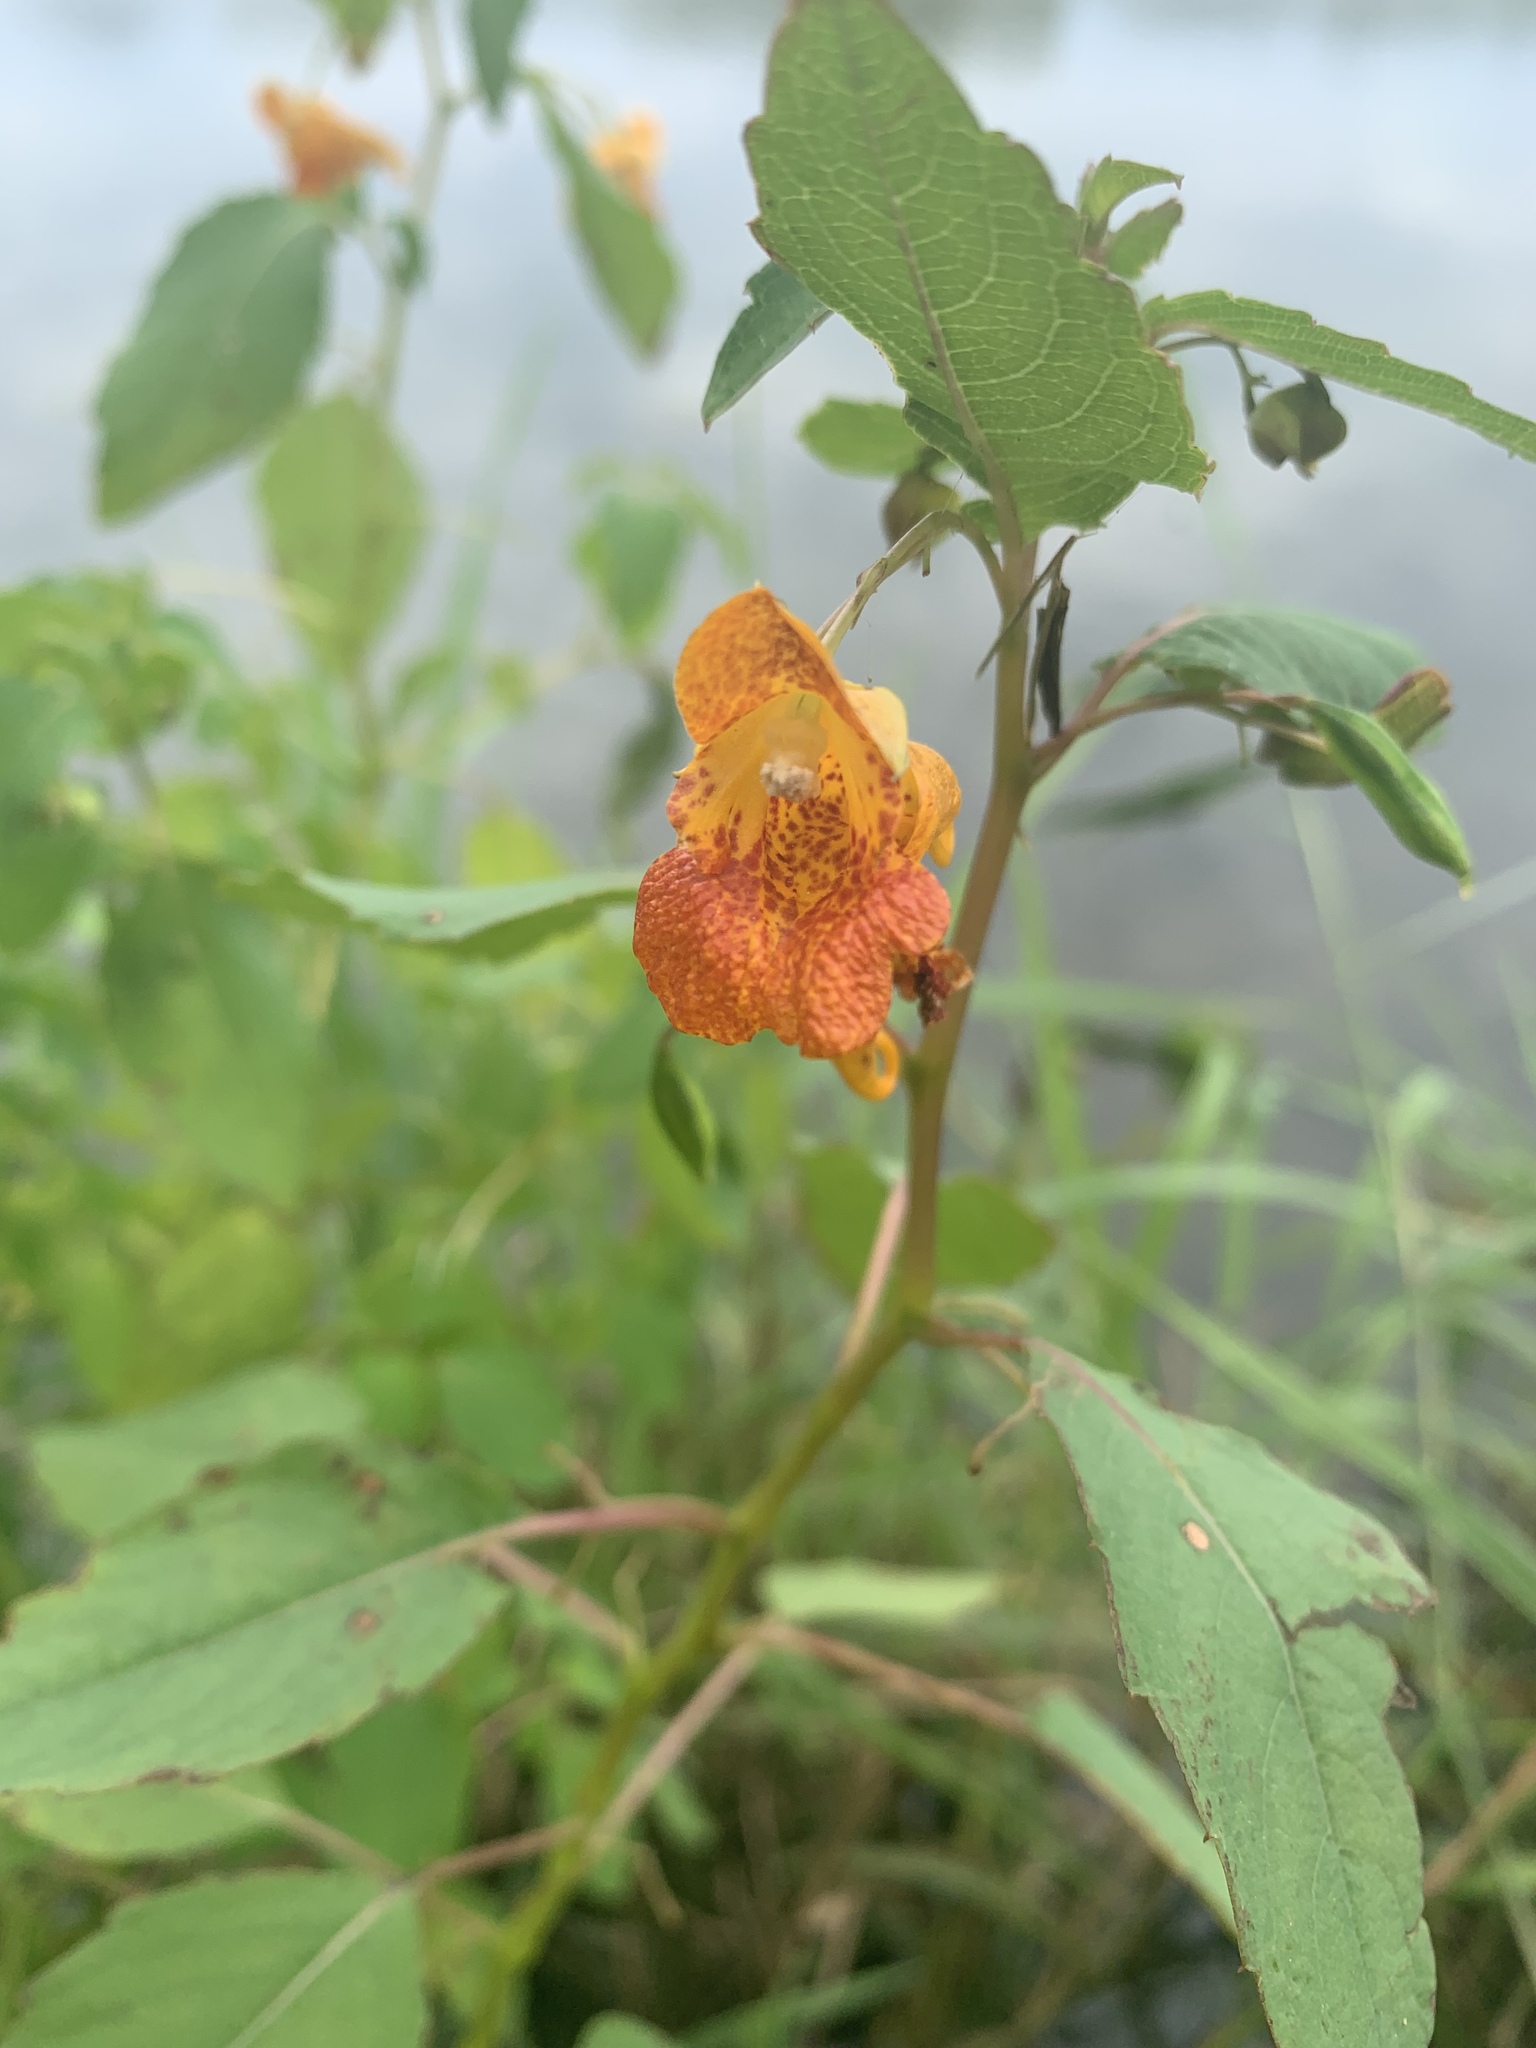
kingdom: Plantae
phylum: Tracheophyta
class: Magnoliopsida
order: Ericales
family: Balsaminaceae
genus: Impatiens
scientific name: Impatiens capensis
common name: Orange balsam
